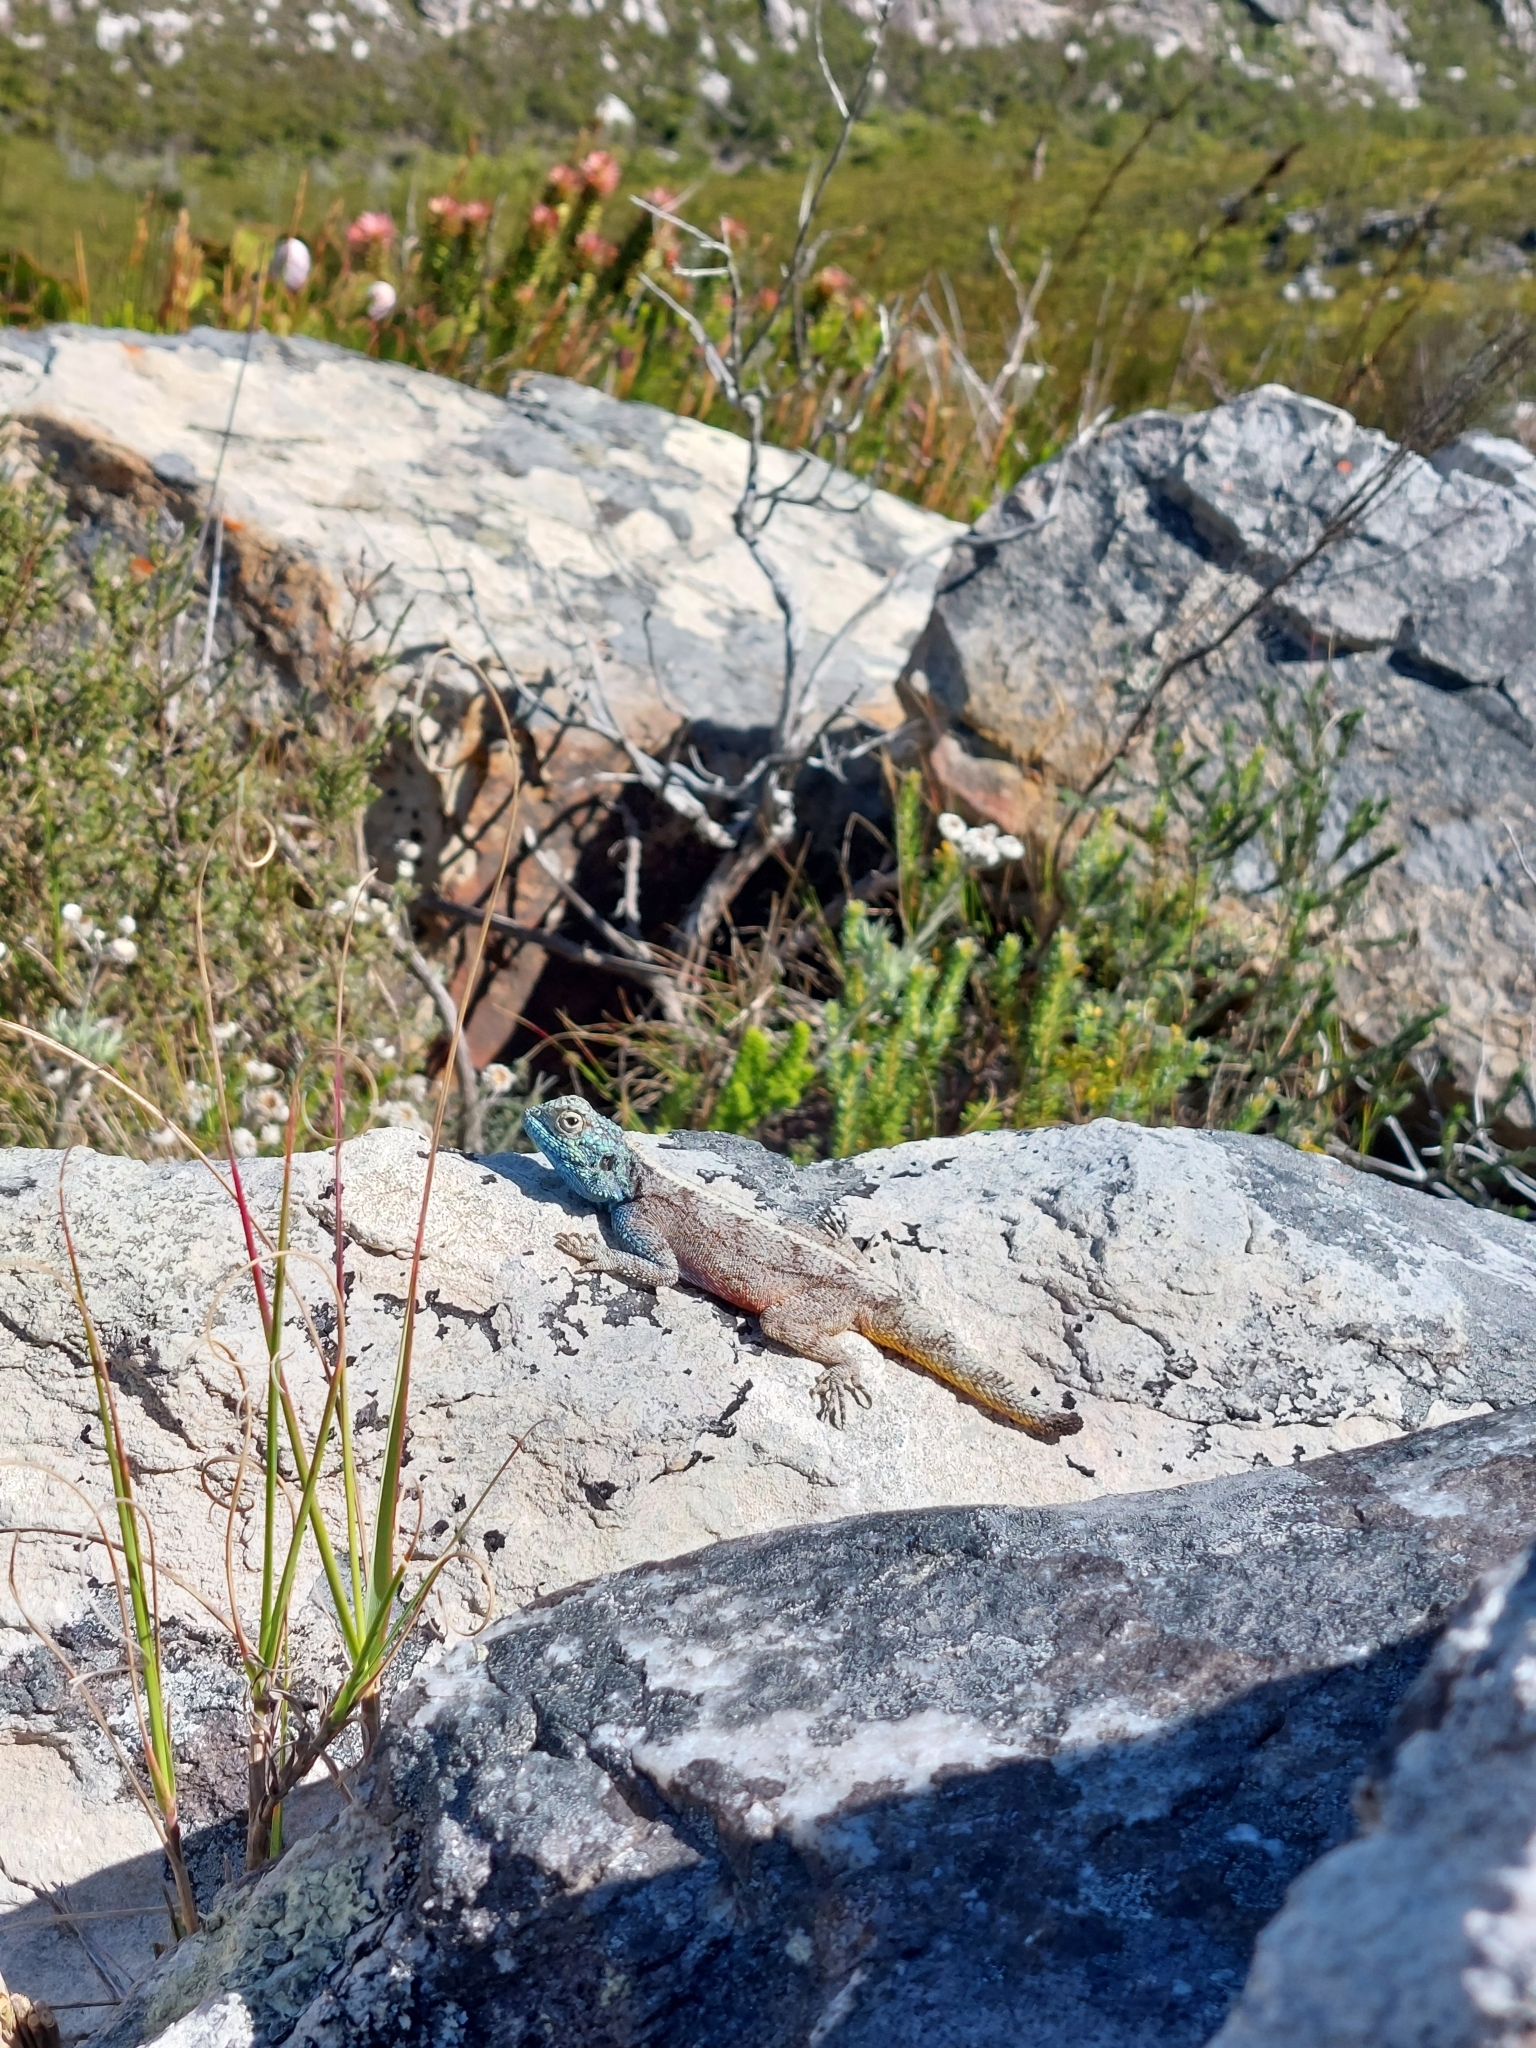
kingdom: Animalia
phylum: Chordata
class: Squamata
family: Agamidae
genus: Agama
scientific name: Agama atra
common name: Southern african rock agama
